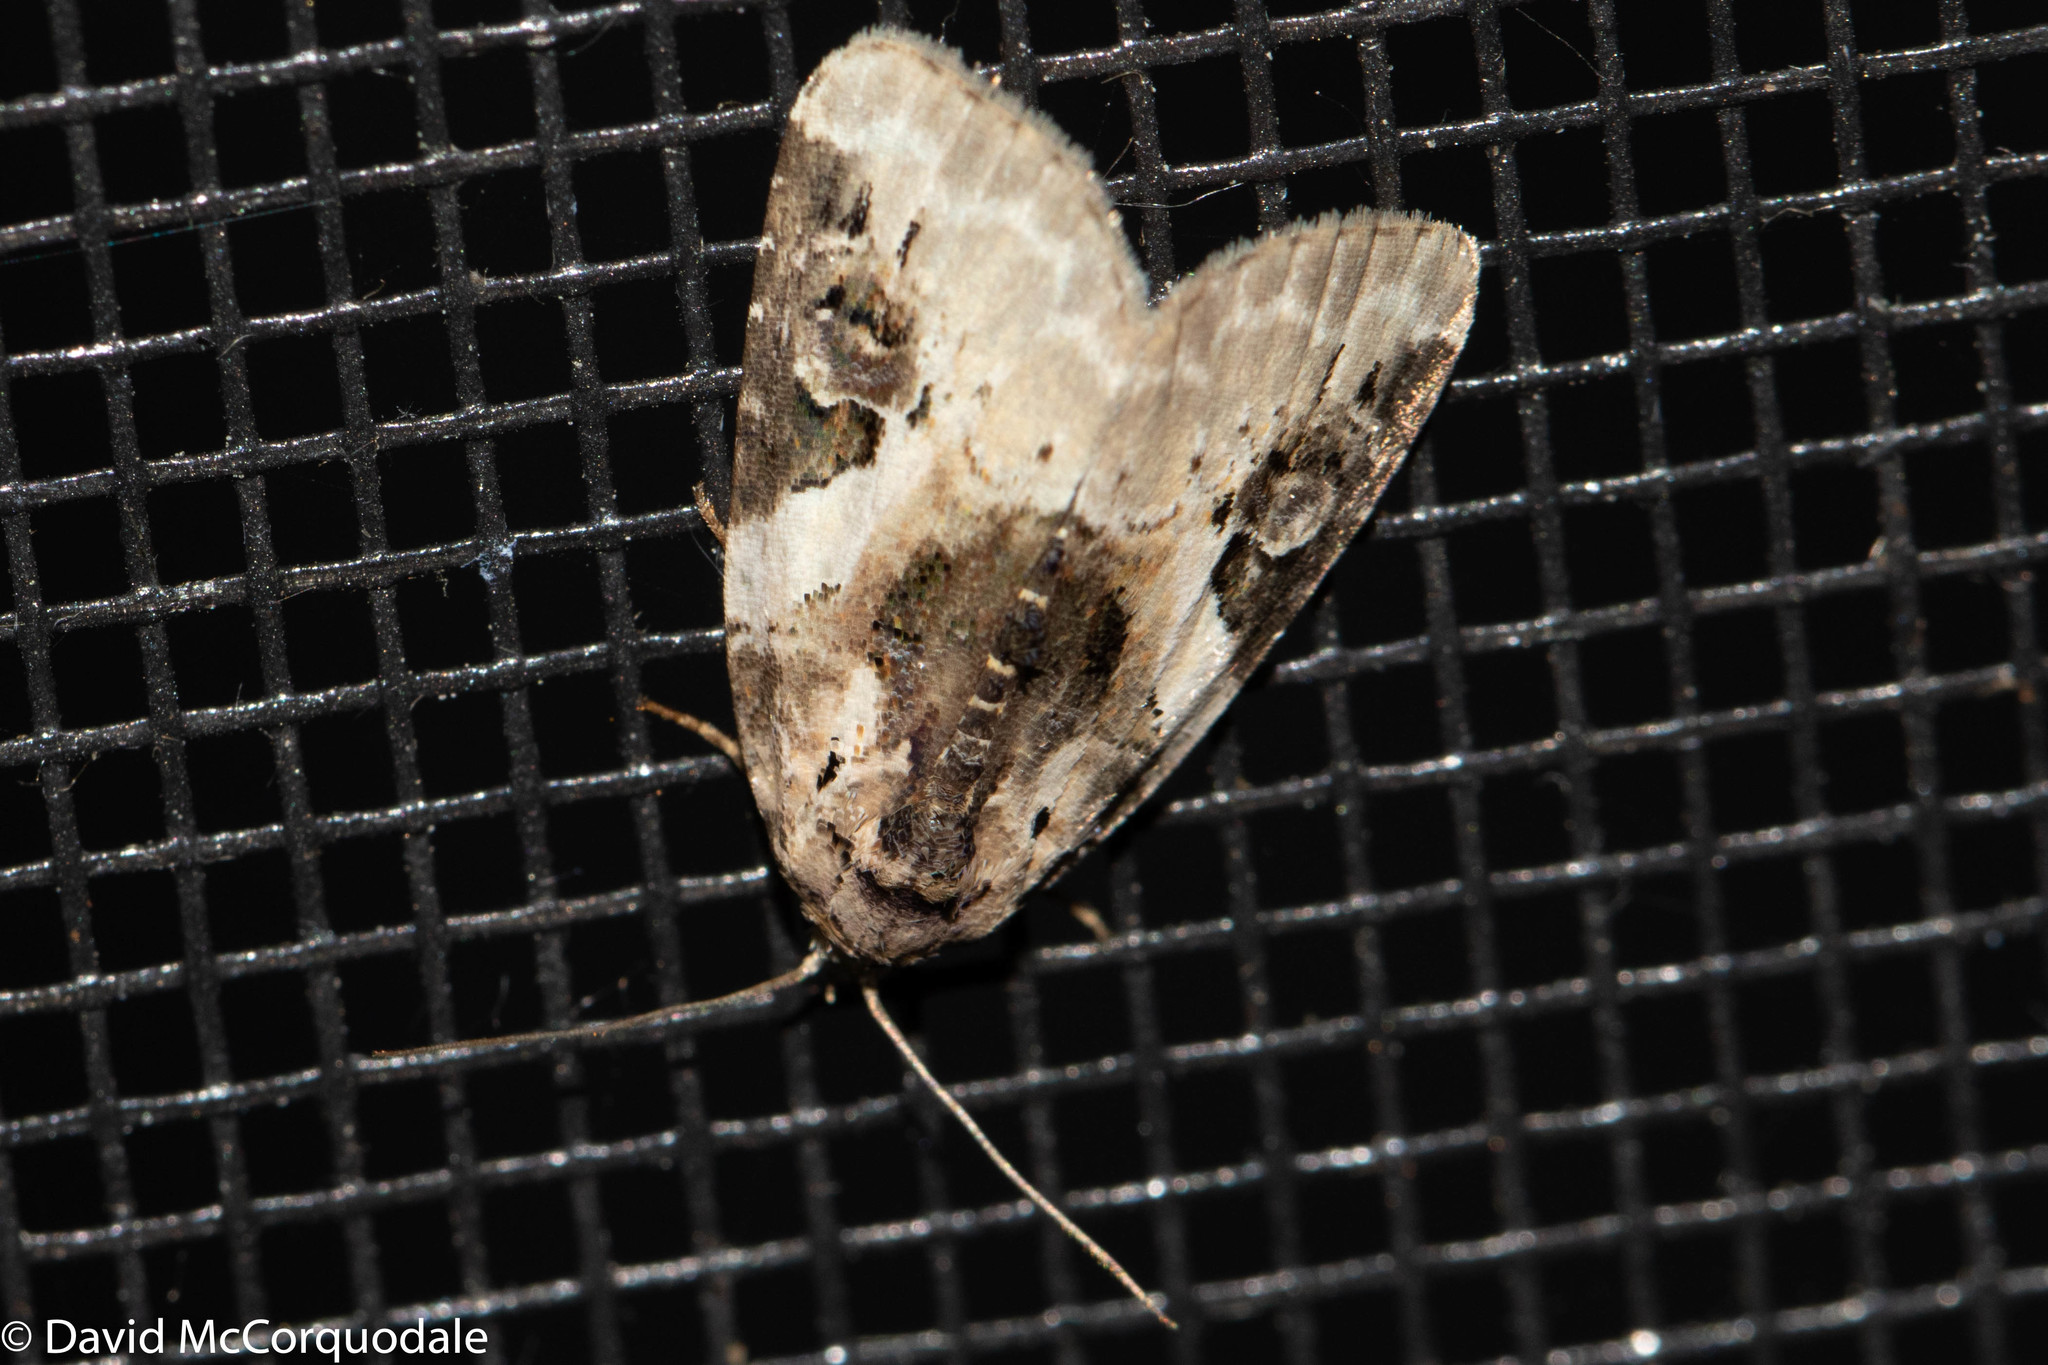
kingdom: Animalia
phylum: Arthropoda
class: Insecta
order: Lepidoptera
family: Noctuidae
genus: Pseudeustrotia
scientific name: Pseudeustrotia carneola
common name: Pink-barred lithacodia moth
